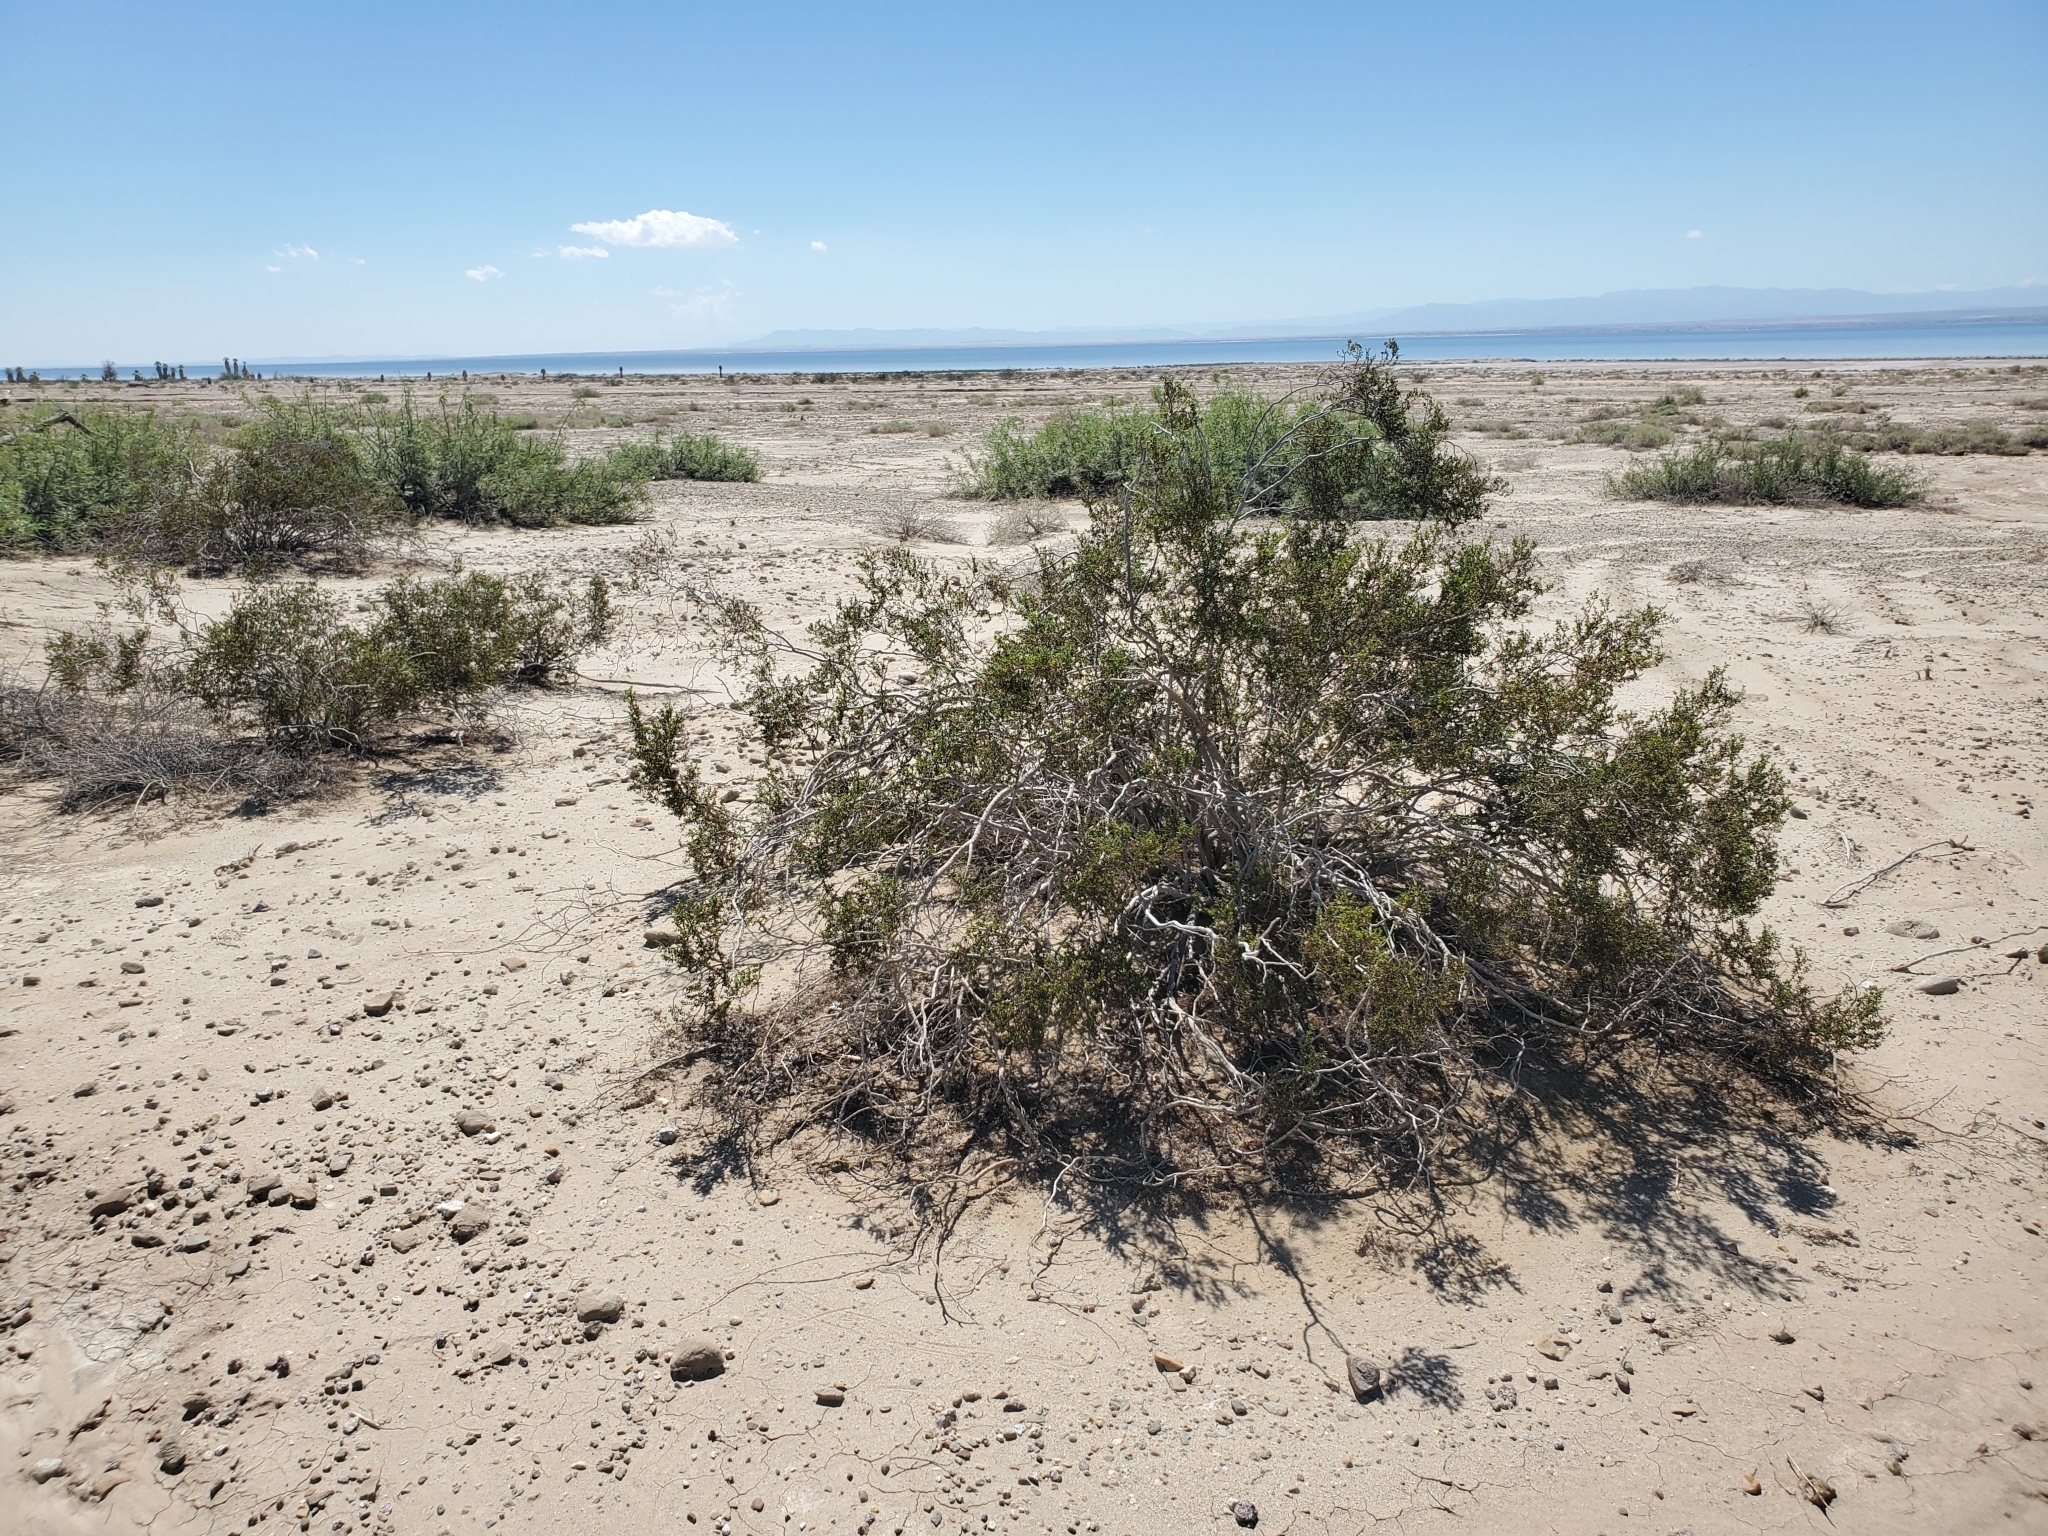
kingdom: Plantae
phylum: Tracheophyta
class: Magnoliopsida
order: Zygophyllales
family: Zygophyllaceae
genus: Larrea
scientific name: Larrea tridentata
